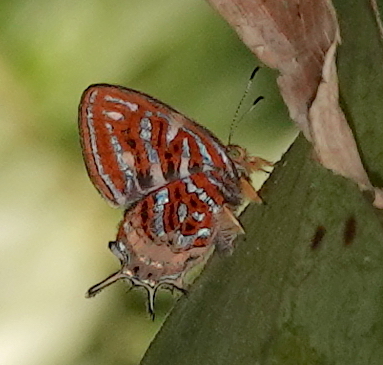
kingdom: Animalia
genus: Charis
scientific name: Charis chrysus
